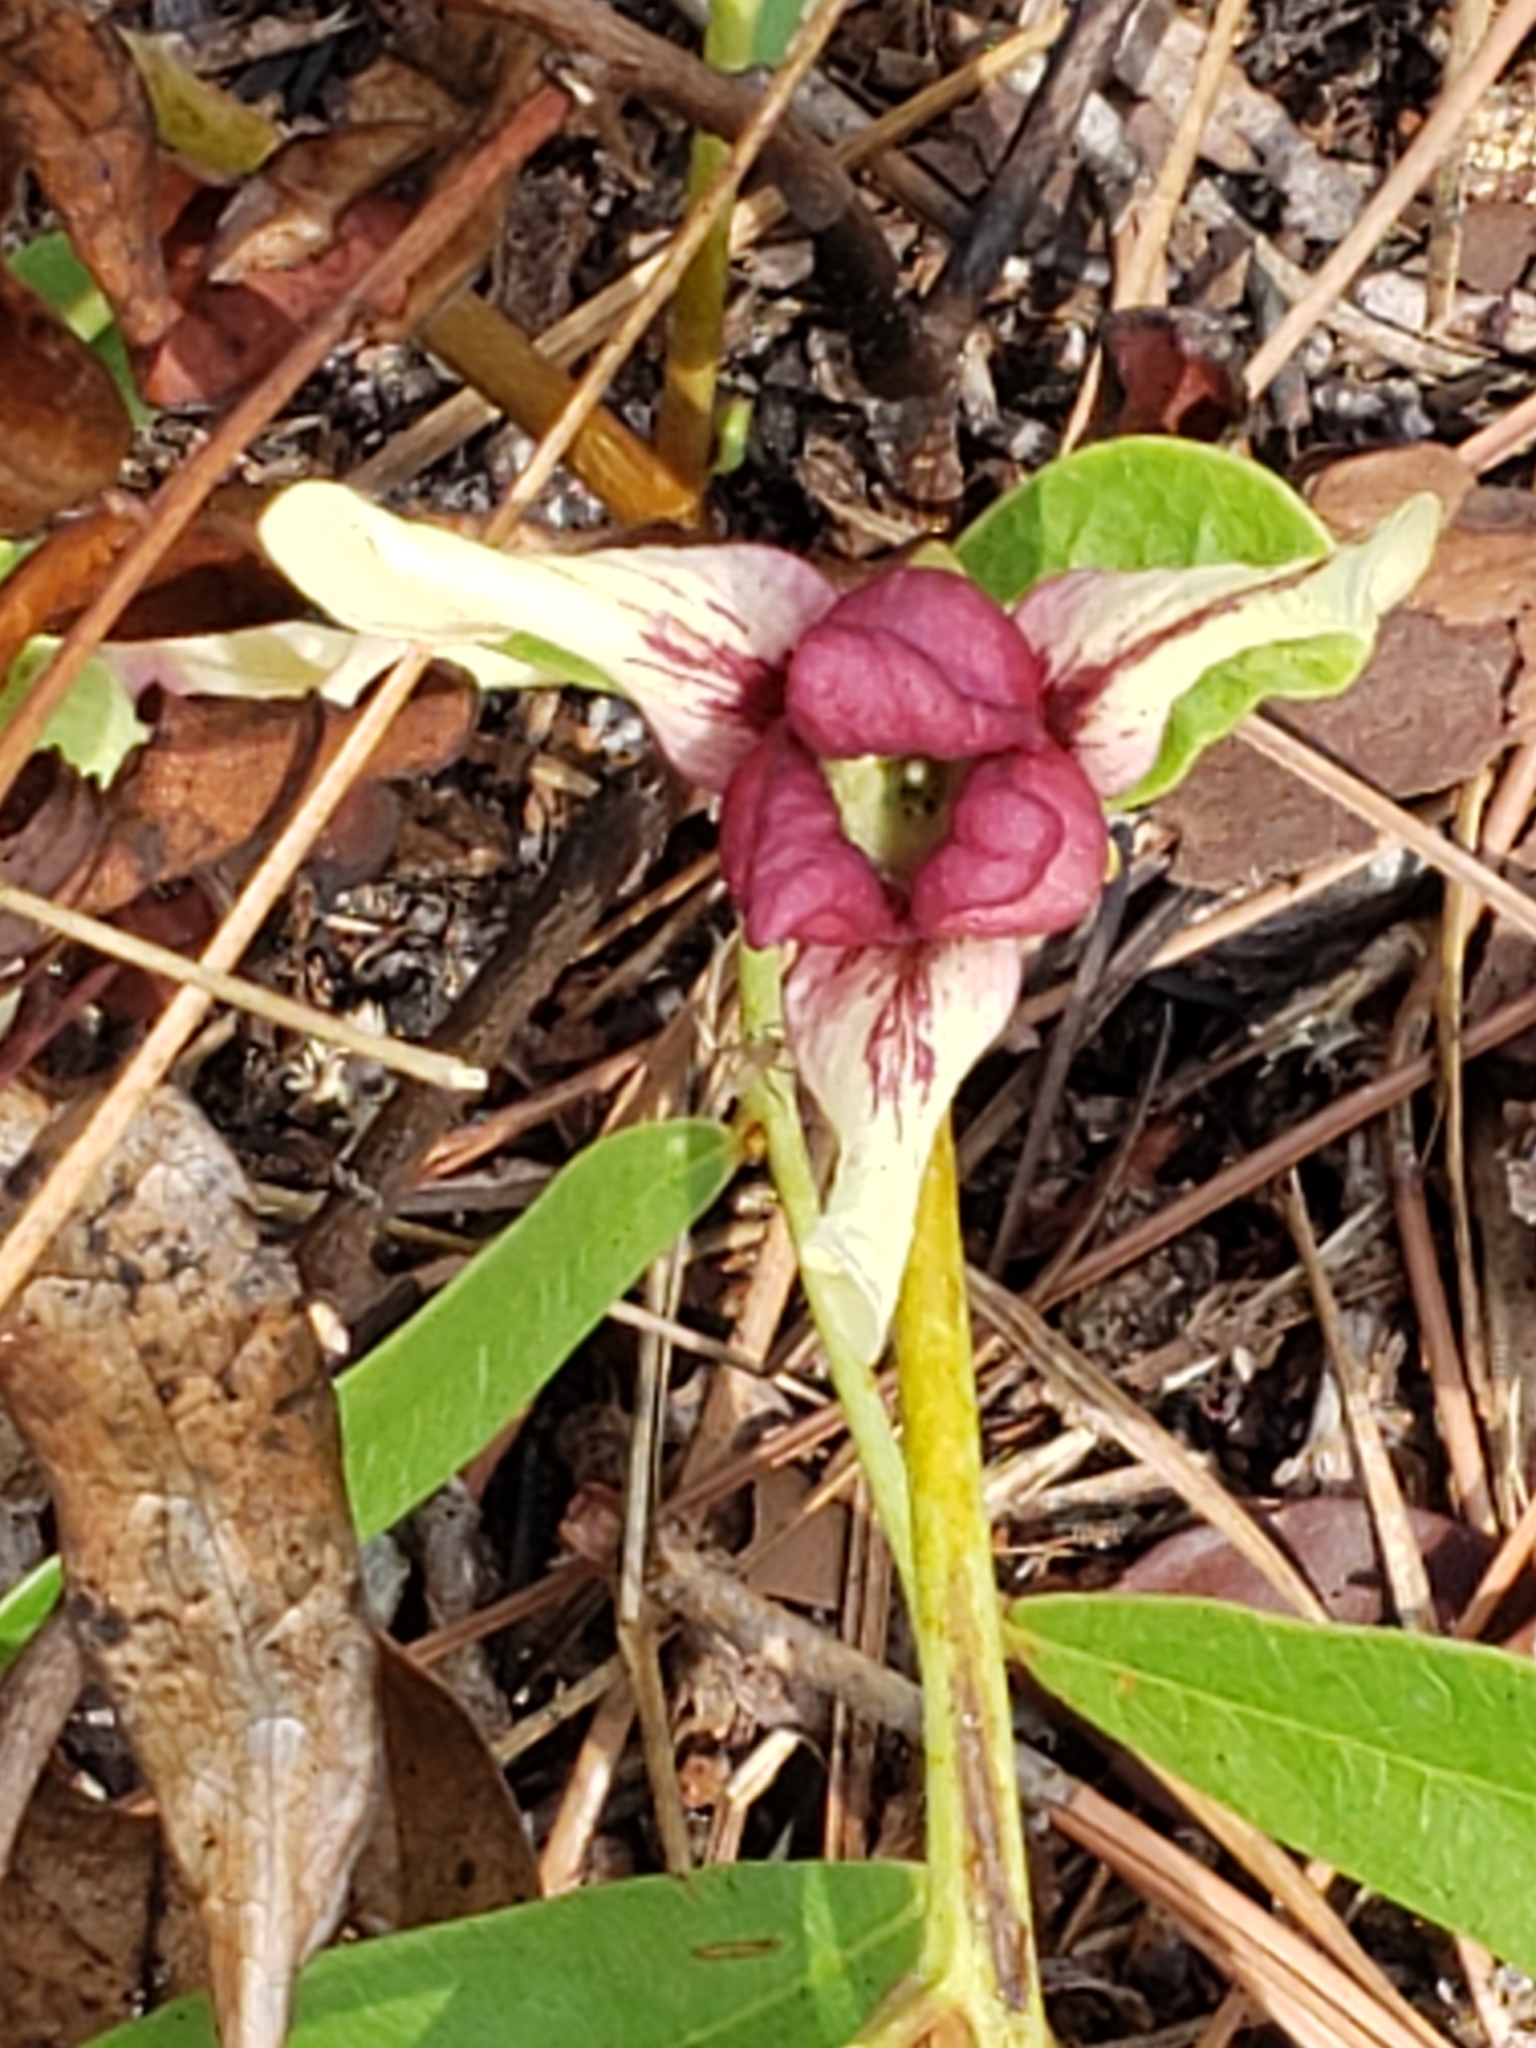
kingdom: Plantae
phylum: Tracheophyta
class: Magnoliopsida
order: Magnoliales
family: Annonaceae
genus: Asimina
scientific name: Asimina pygmaea
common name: Dwarf pawpaw
